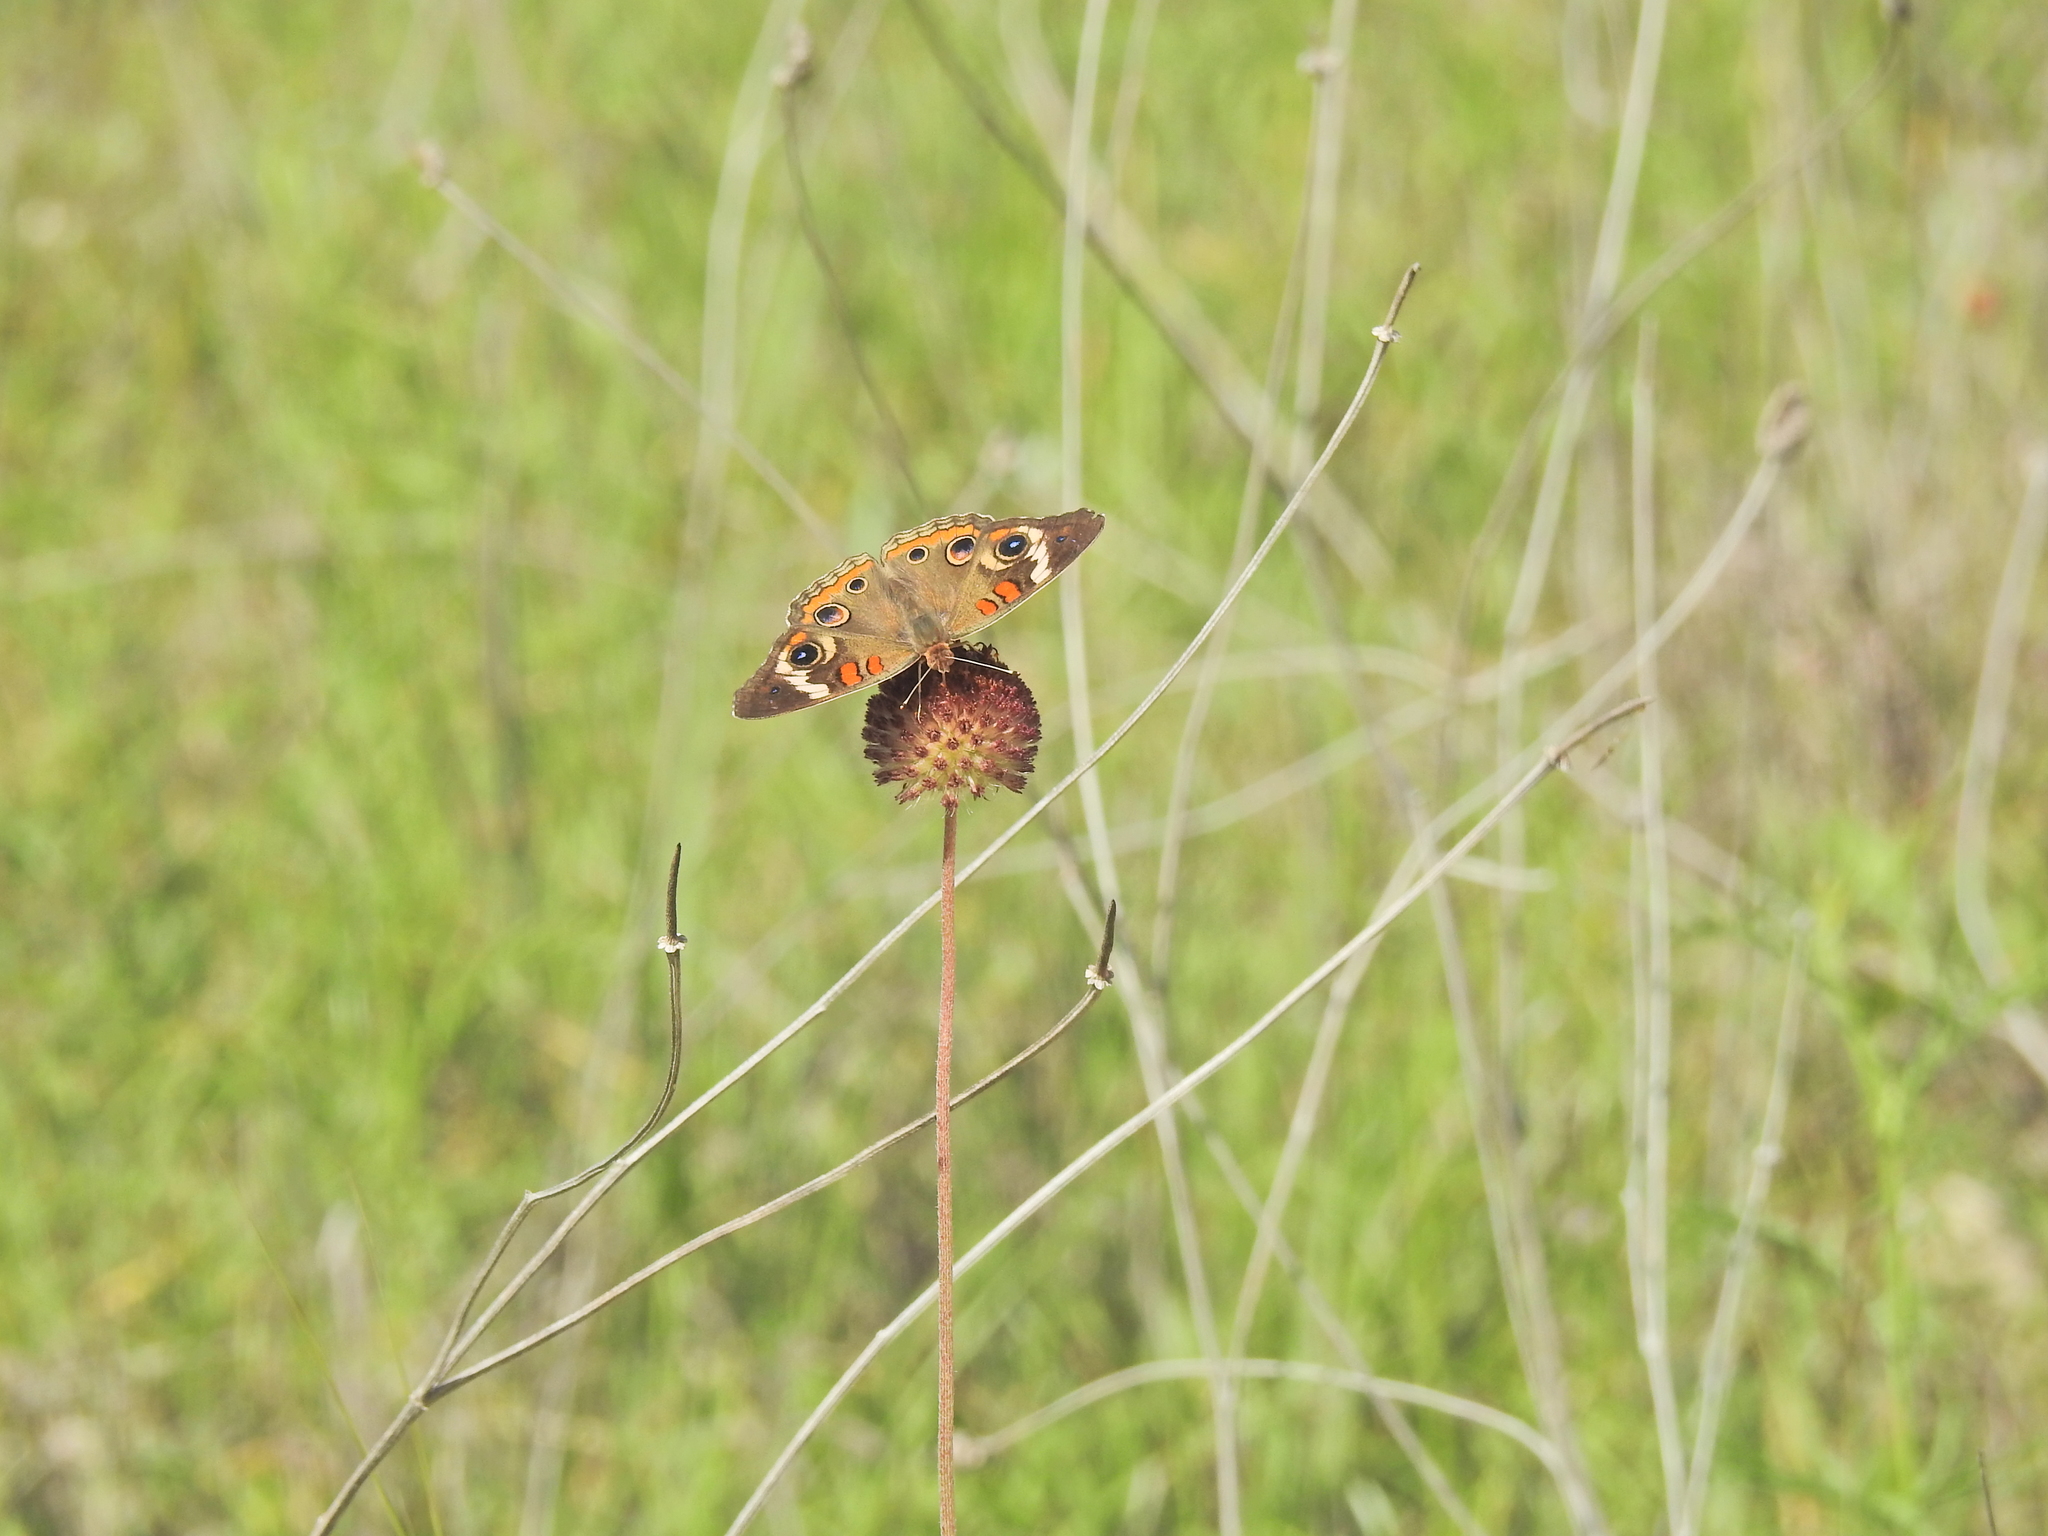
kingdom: Animalia
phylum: Arthropoda
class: Insecta
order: Lepidoptera
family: Nymphalidae
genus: Junonia
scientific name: Junonia coenia
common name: Common buckeye
